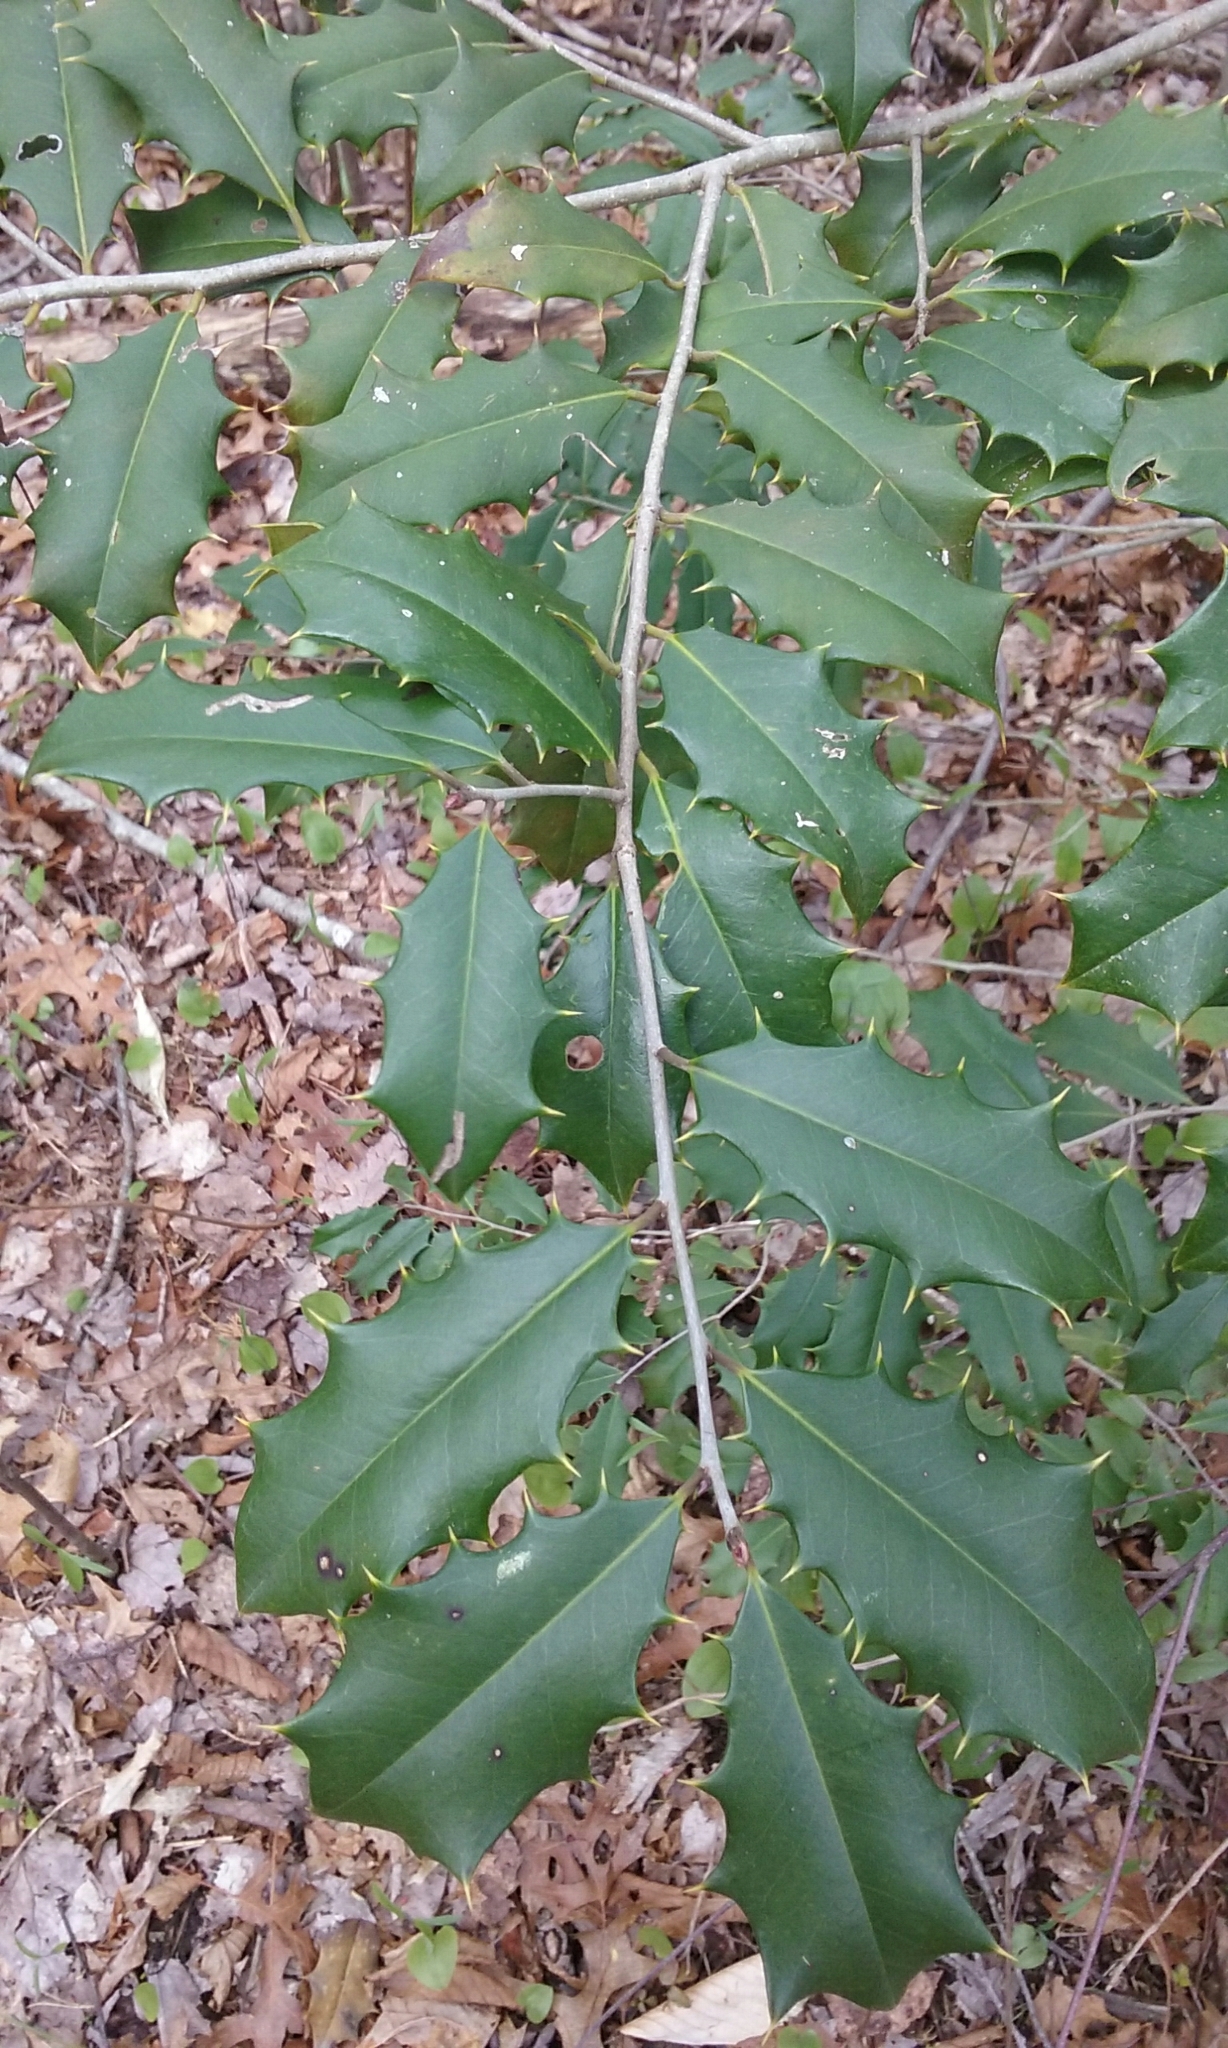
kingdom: Plantae
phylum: Tracheophyta
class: Magnoliopsida
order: Aquifoliales
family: Aquifoliaceae
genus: Ilex
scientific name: Ilex opaca
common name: American holly
